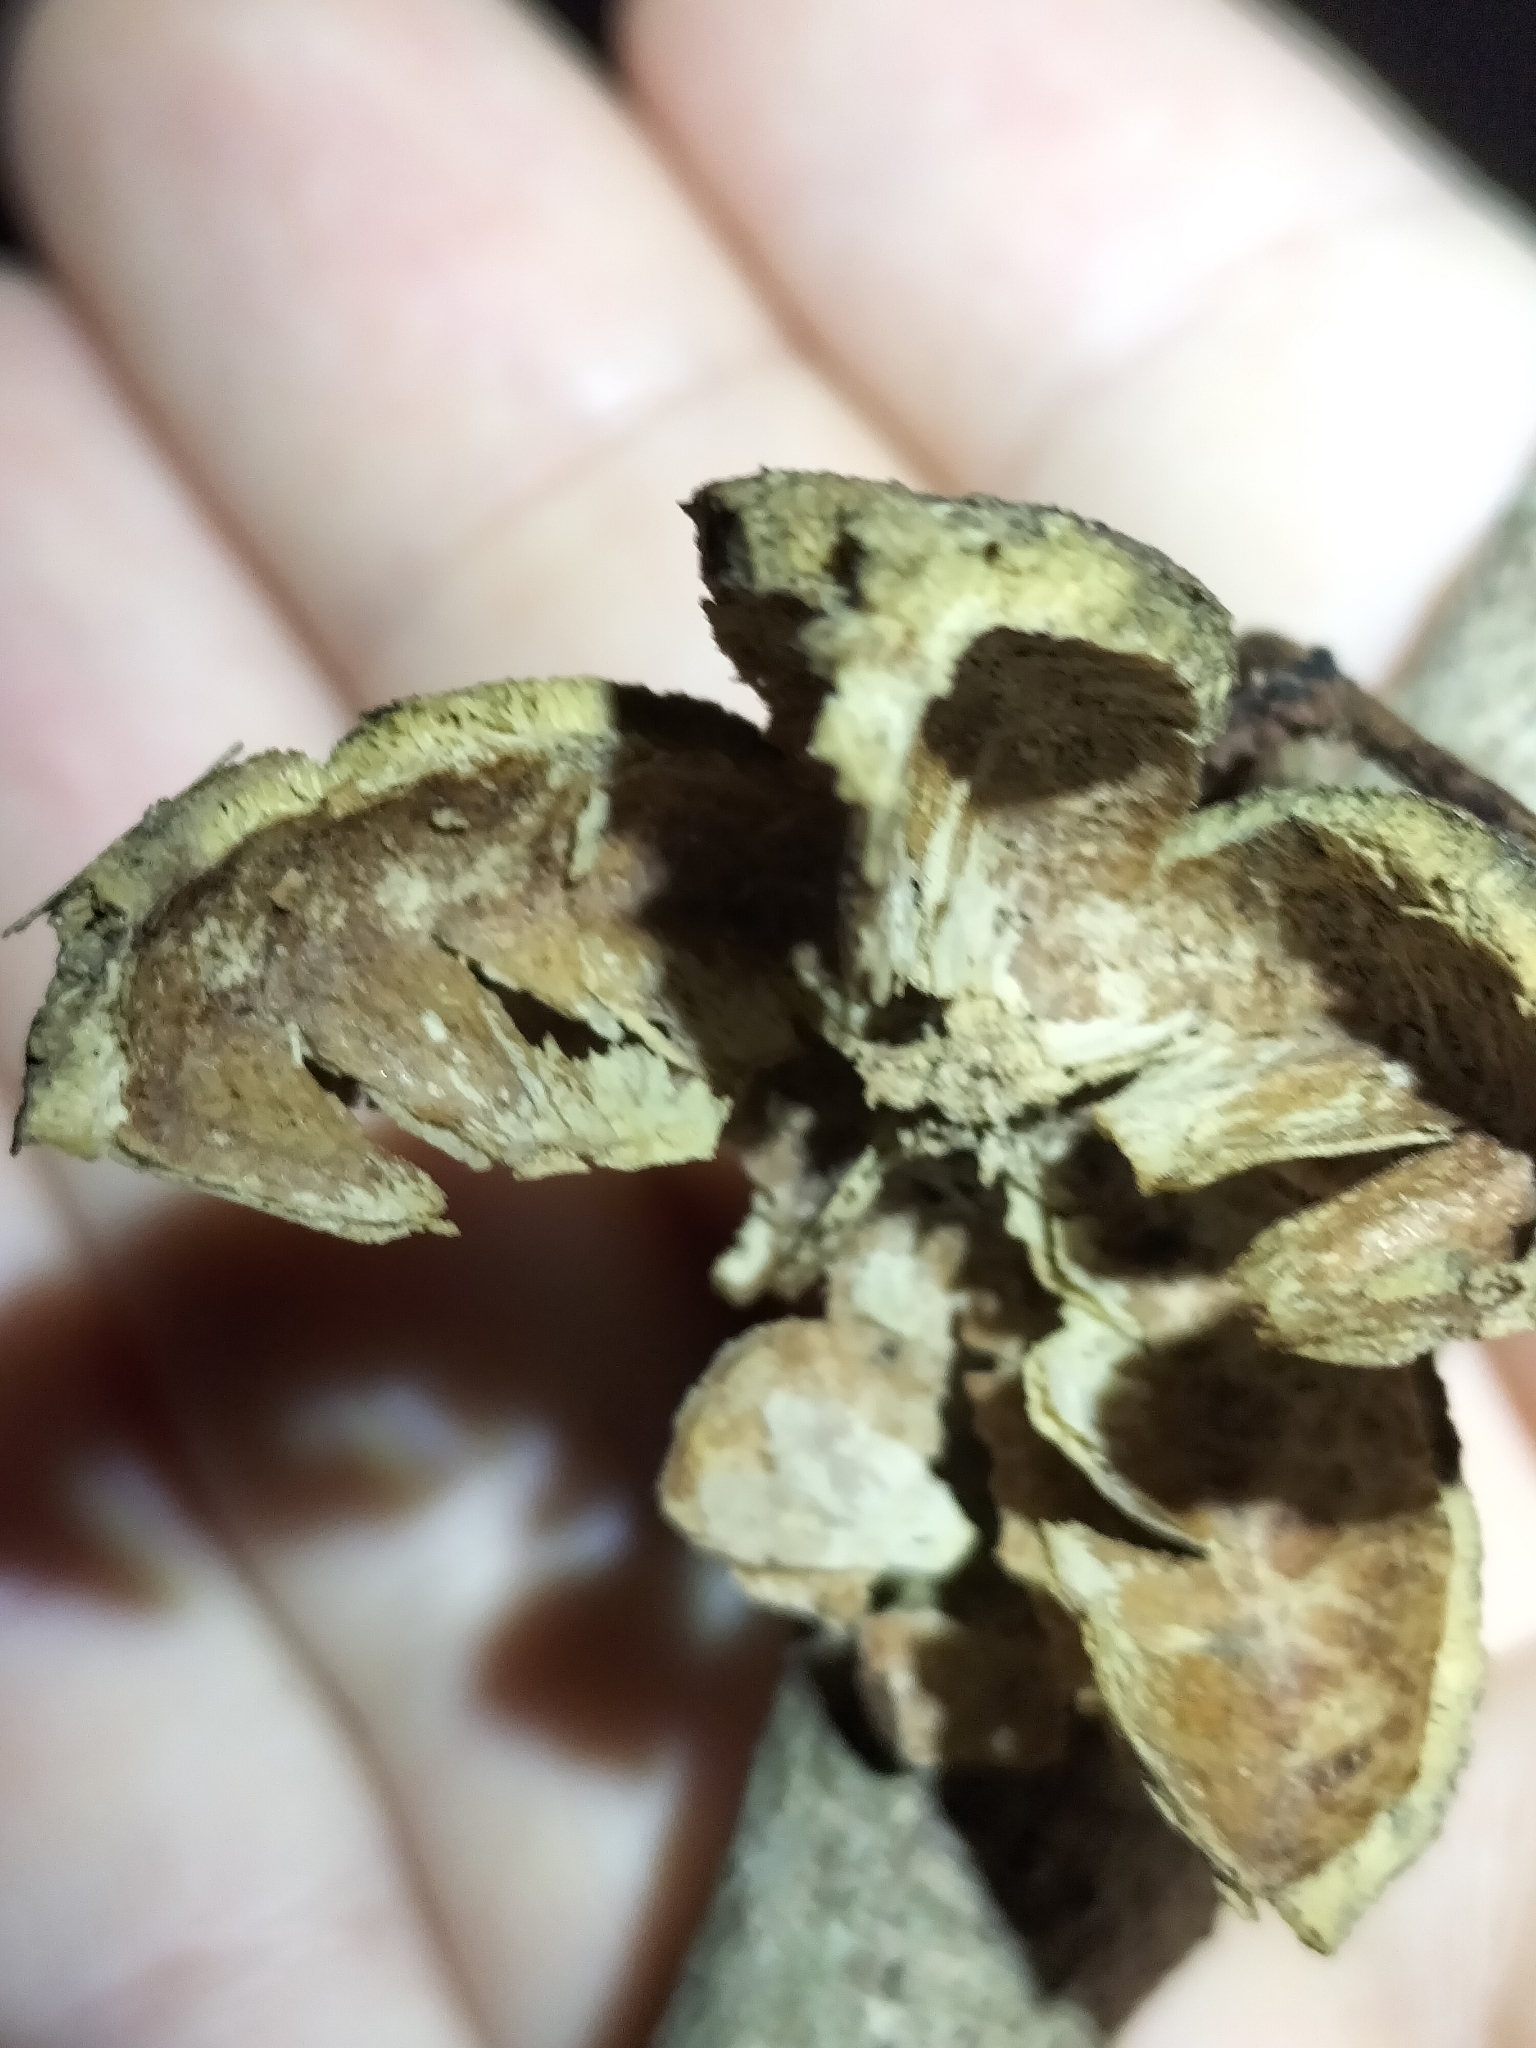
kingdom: Plantae
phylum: Tracheophyta
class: Magnoliopsida
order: Celastrales
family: Celastraceae
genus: Hedraianthera
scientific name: Hedraianthera porphyropetala
